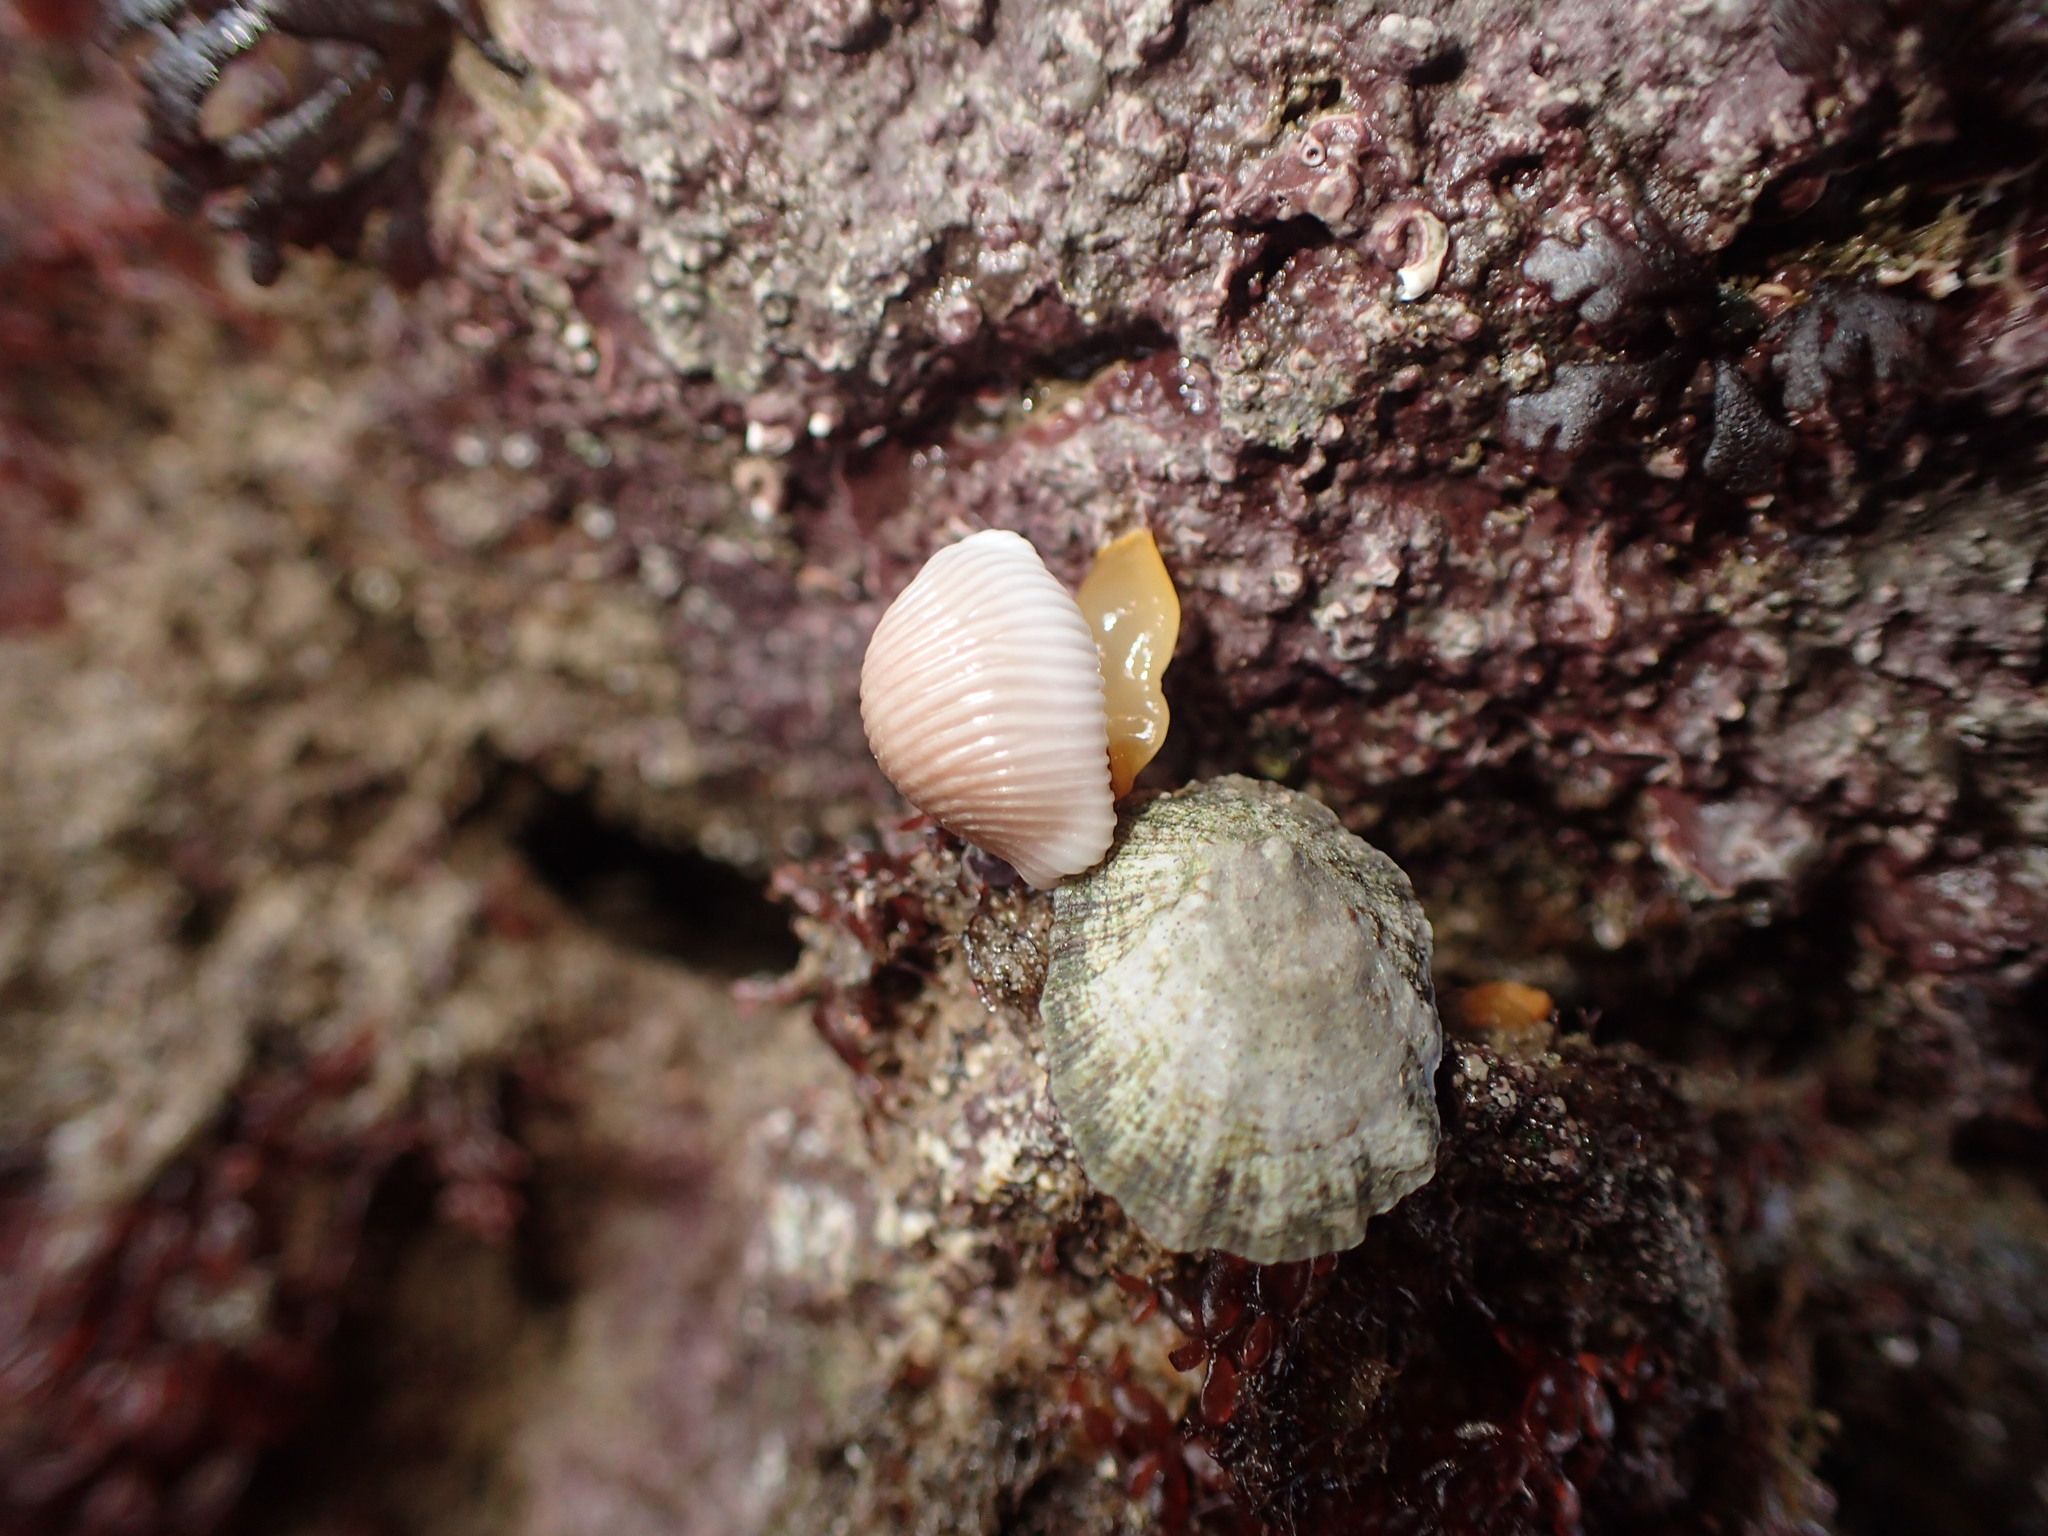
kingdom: Animalia
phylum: Mollusca
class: Gastropoda
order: Littorinimorpha
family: Triviidae
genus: Trivia
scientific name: Trivia arctica
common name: Arctic cowrie
